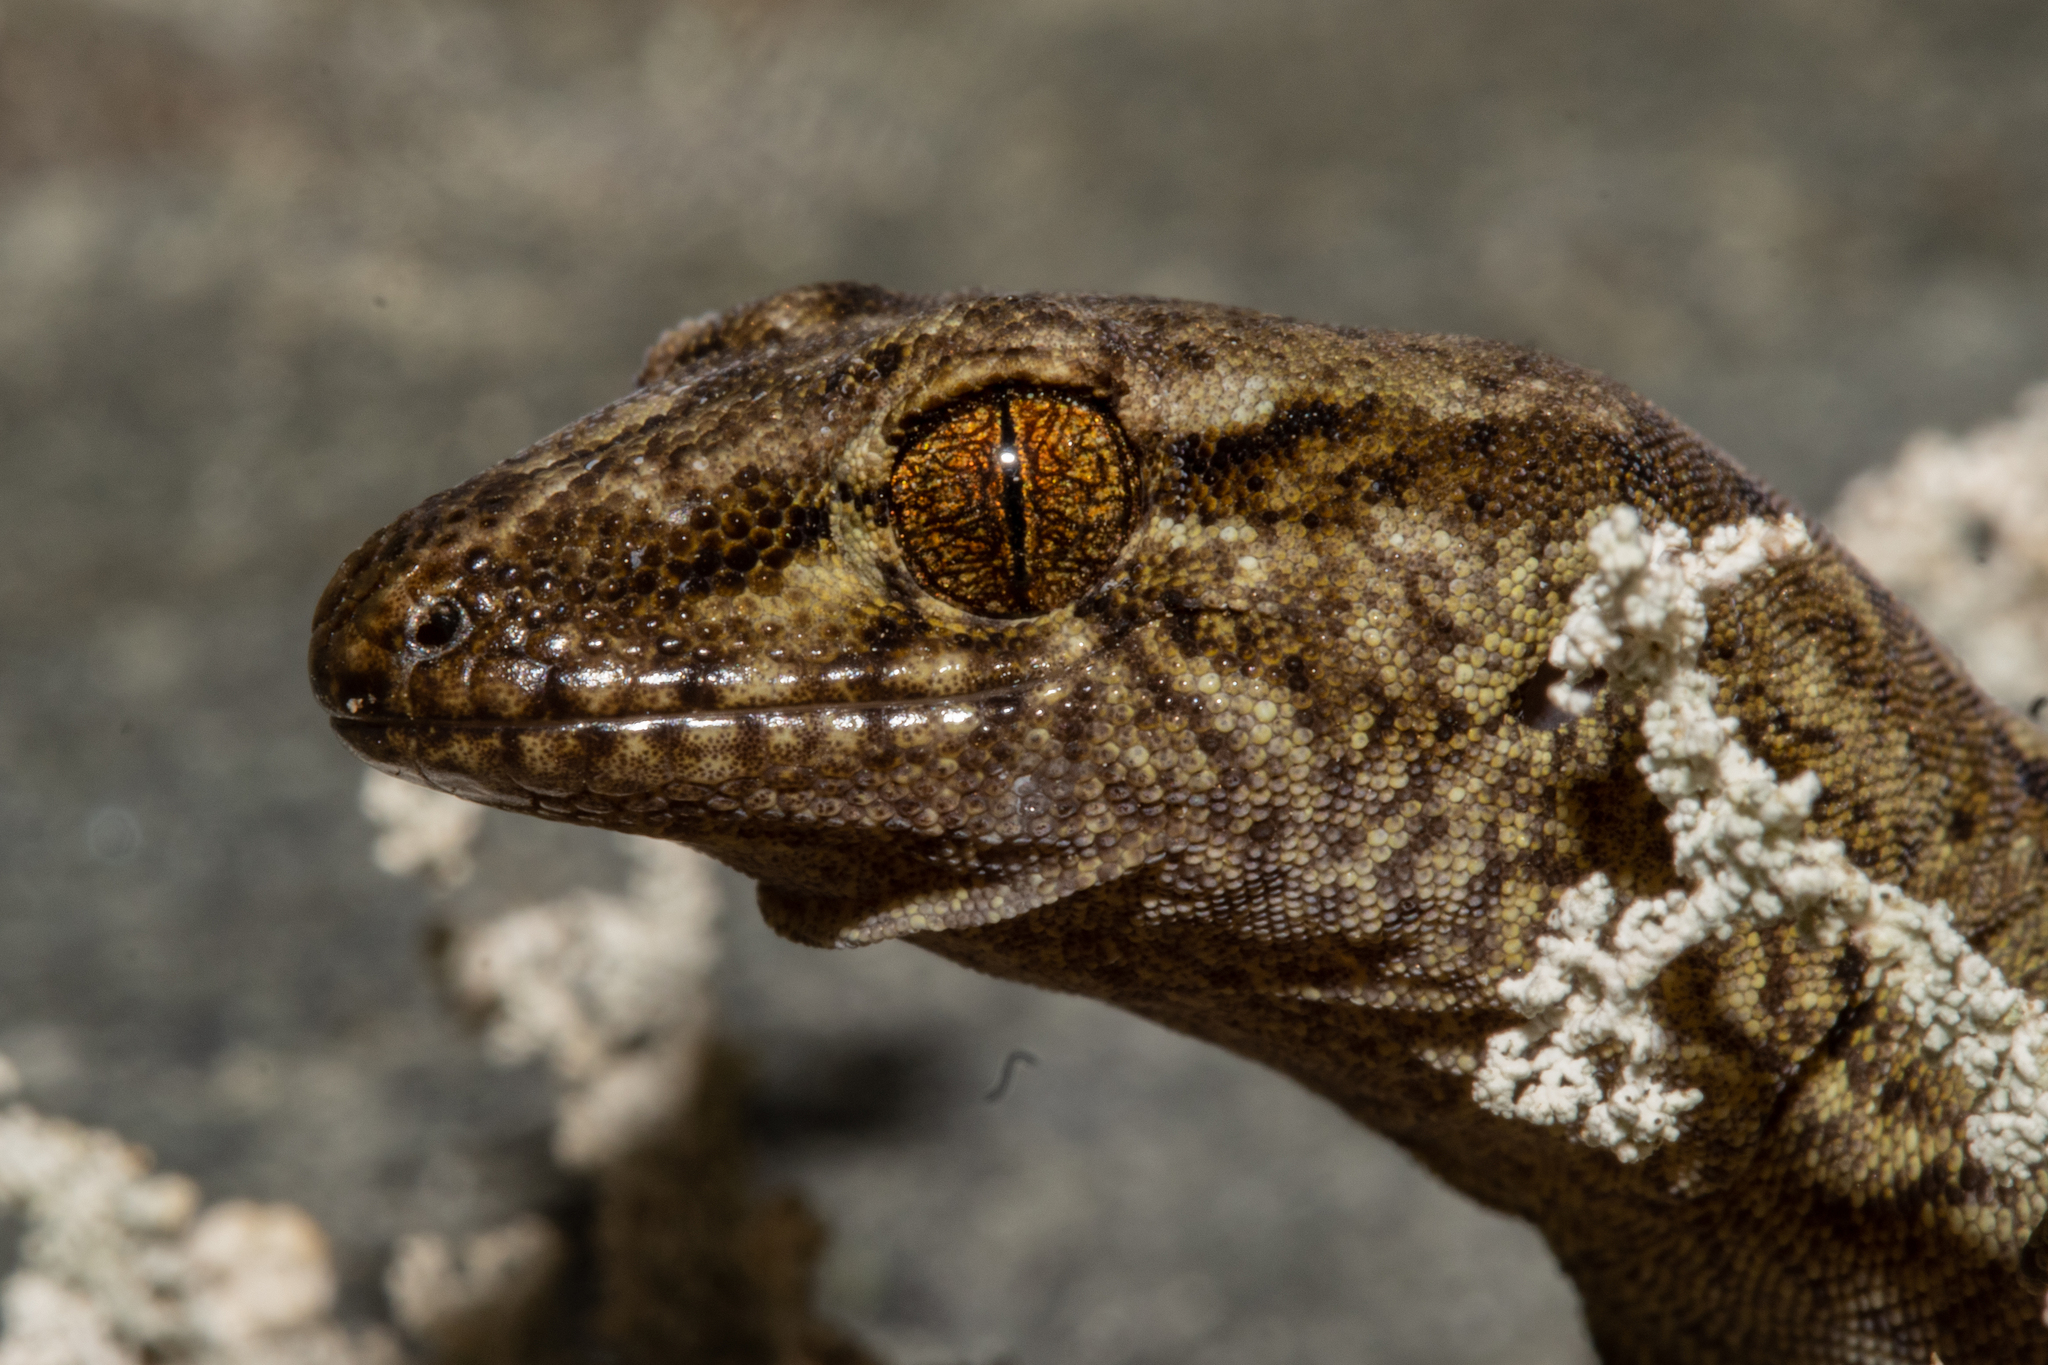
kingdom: Animalia
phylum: Chordata
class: Squamata
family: Diplodactylidae
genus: Woodworthia
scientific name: Woodworthia maculata
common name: Raukawa gecko
